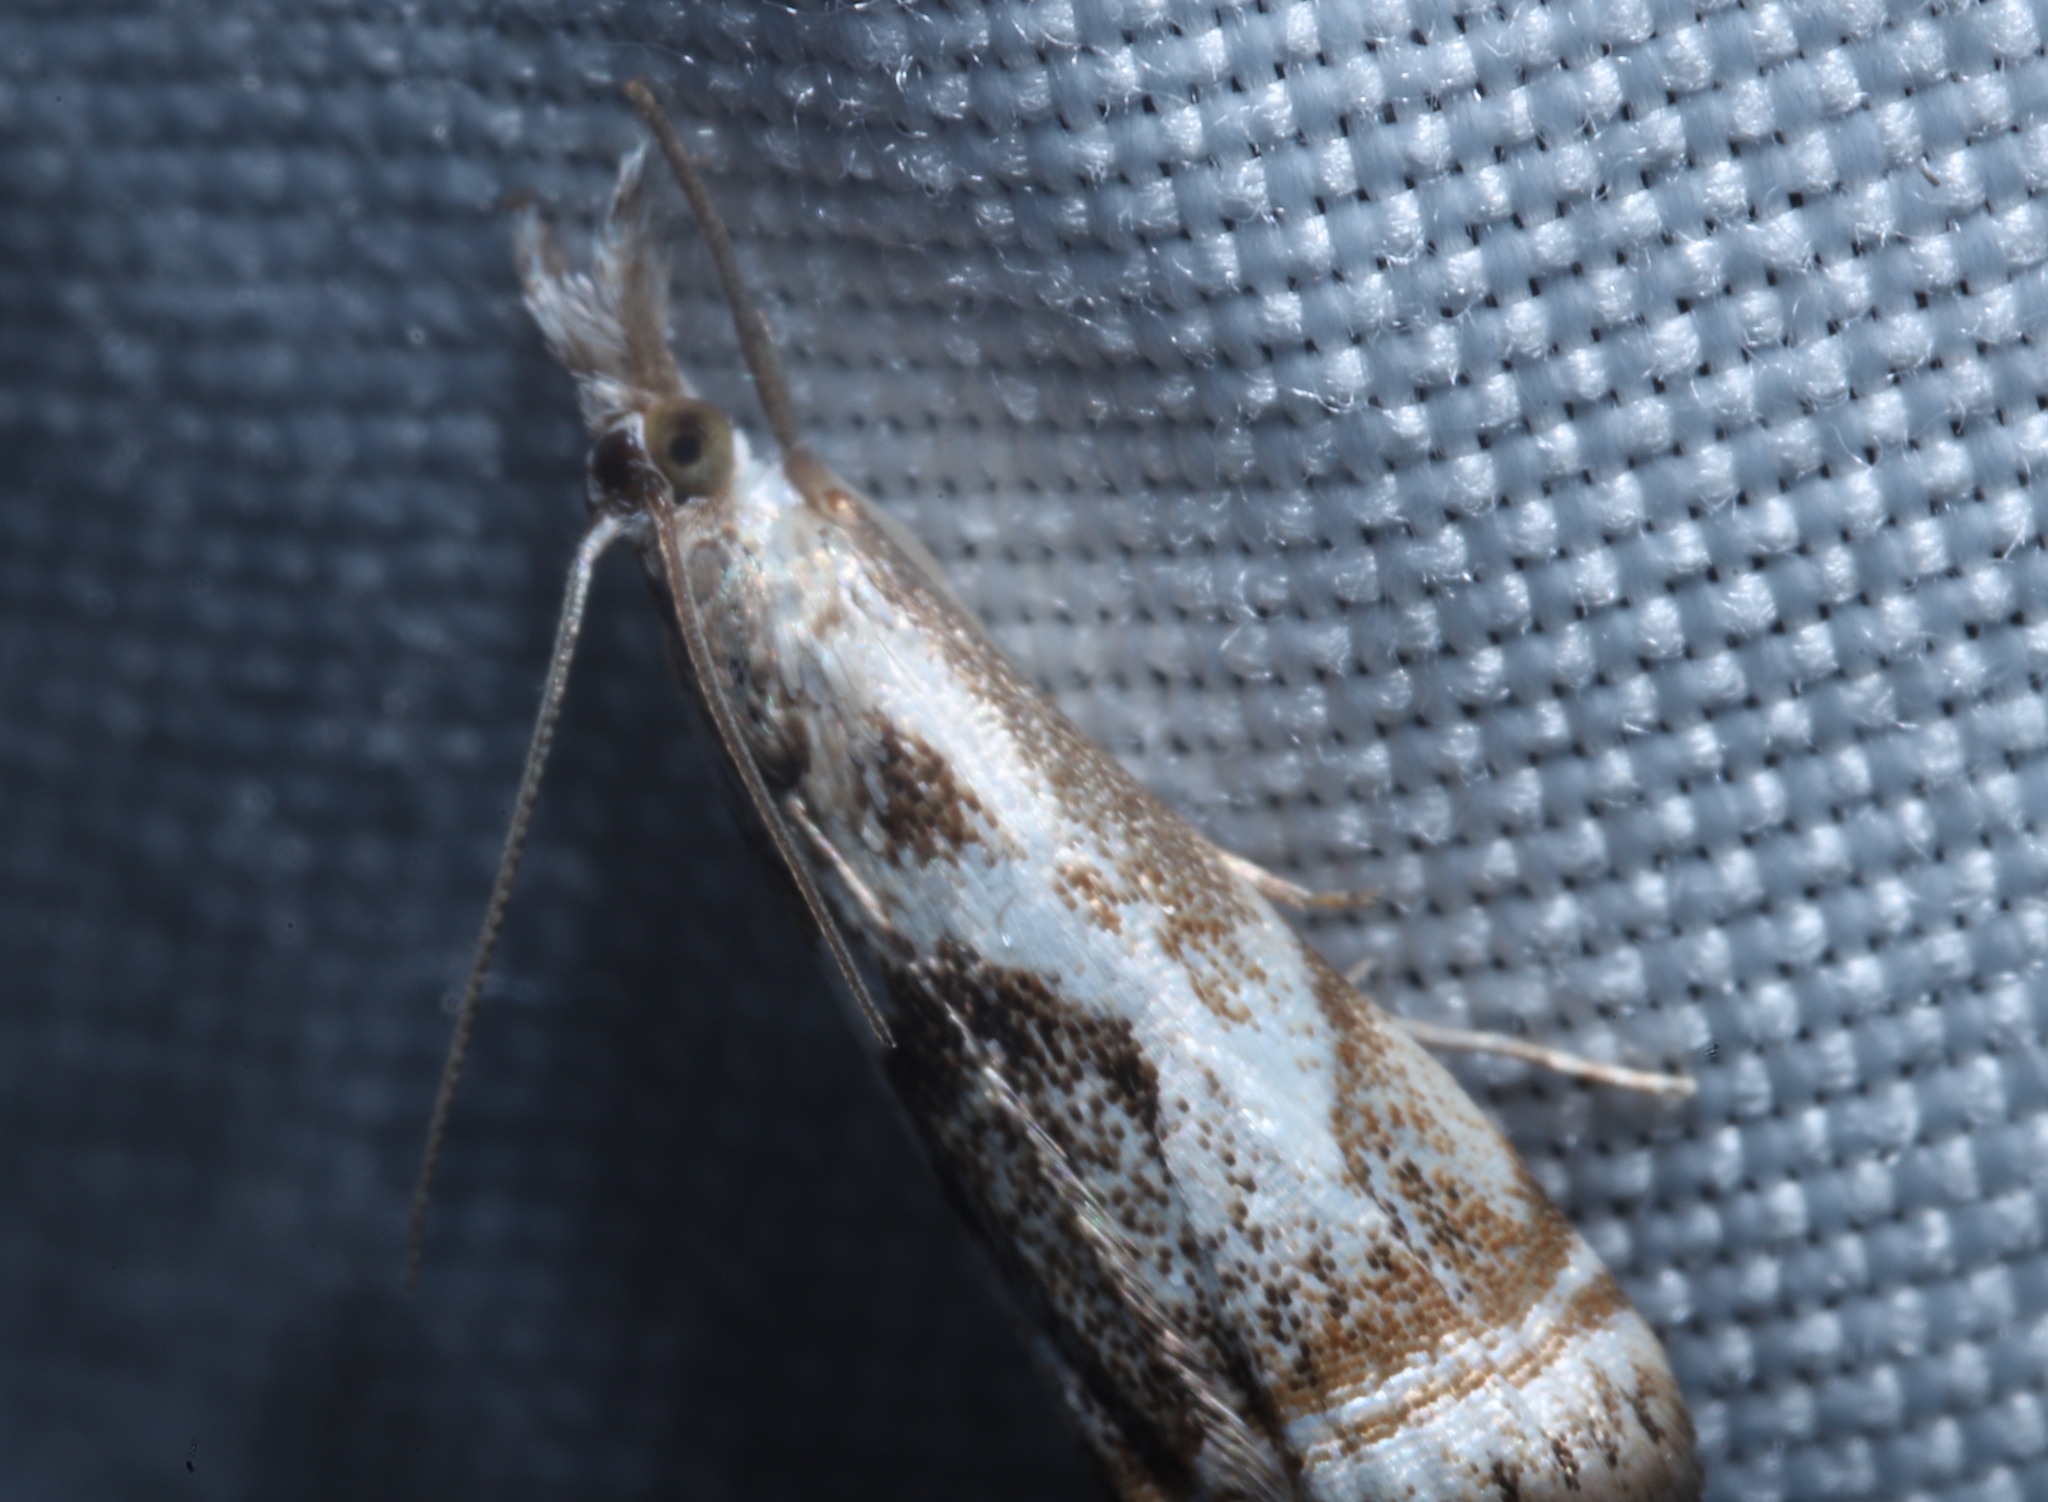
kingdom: Animalia
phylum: Arthropoda
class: Insecta
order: Lepidoptera
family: Crambidae
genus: Microcrambus
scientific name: Microcrambus elegans
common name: Elegant grass-veneer
